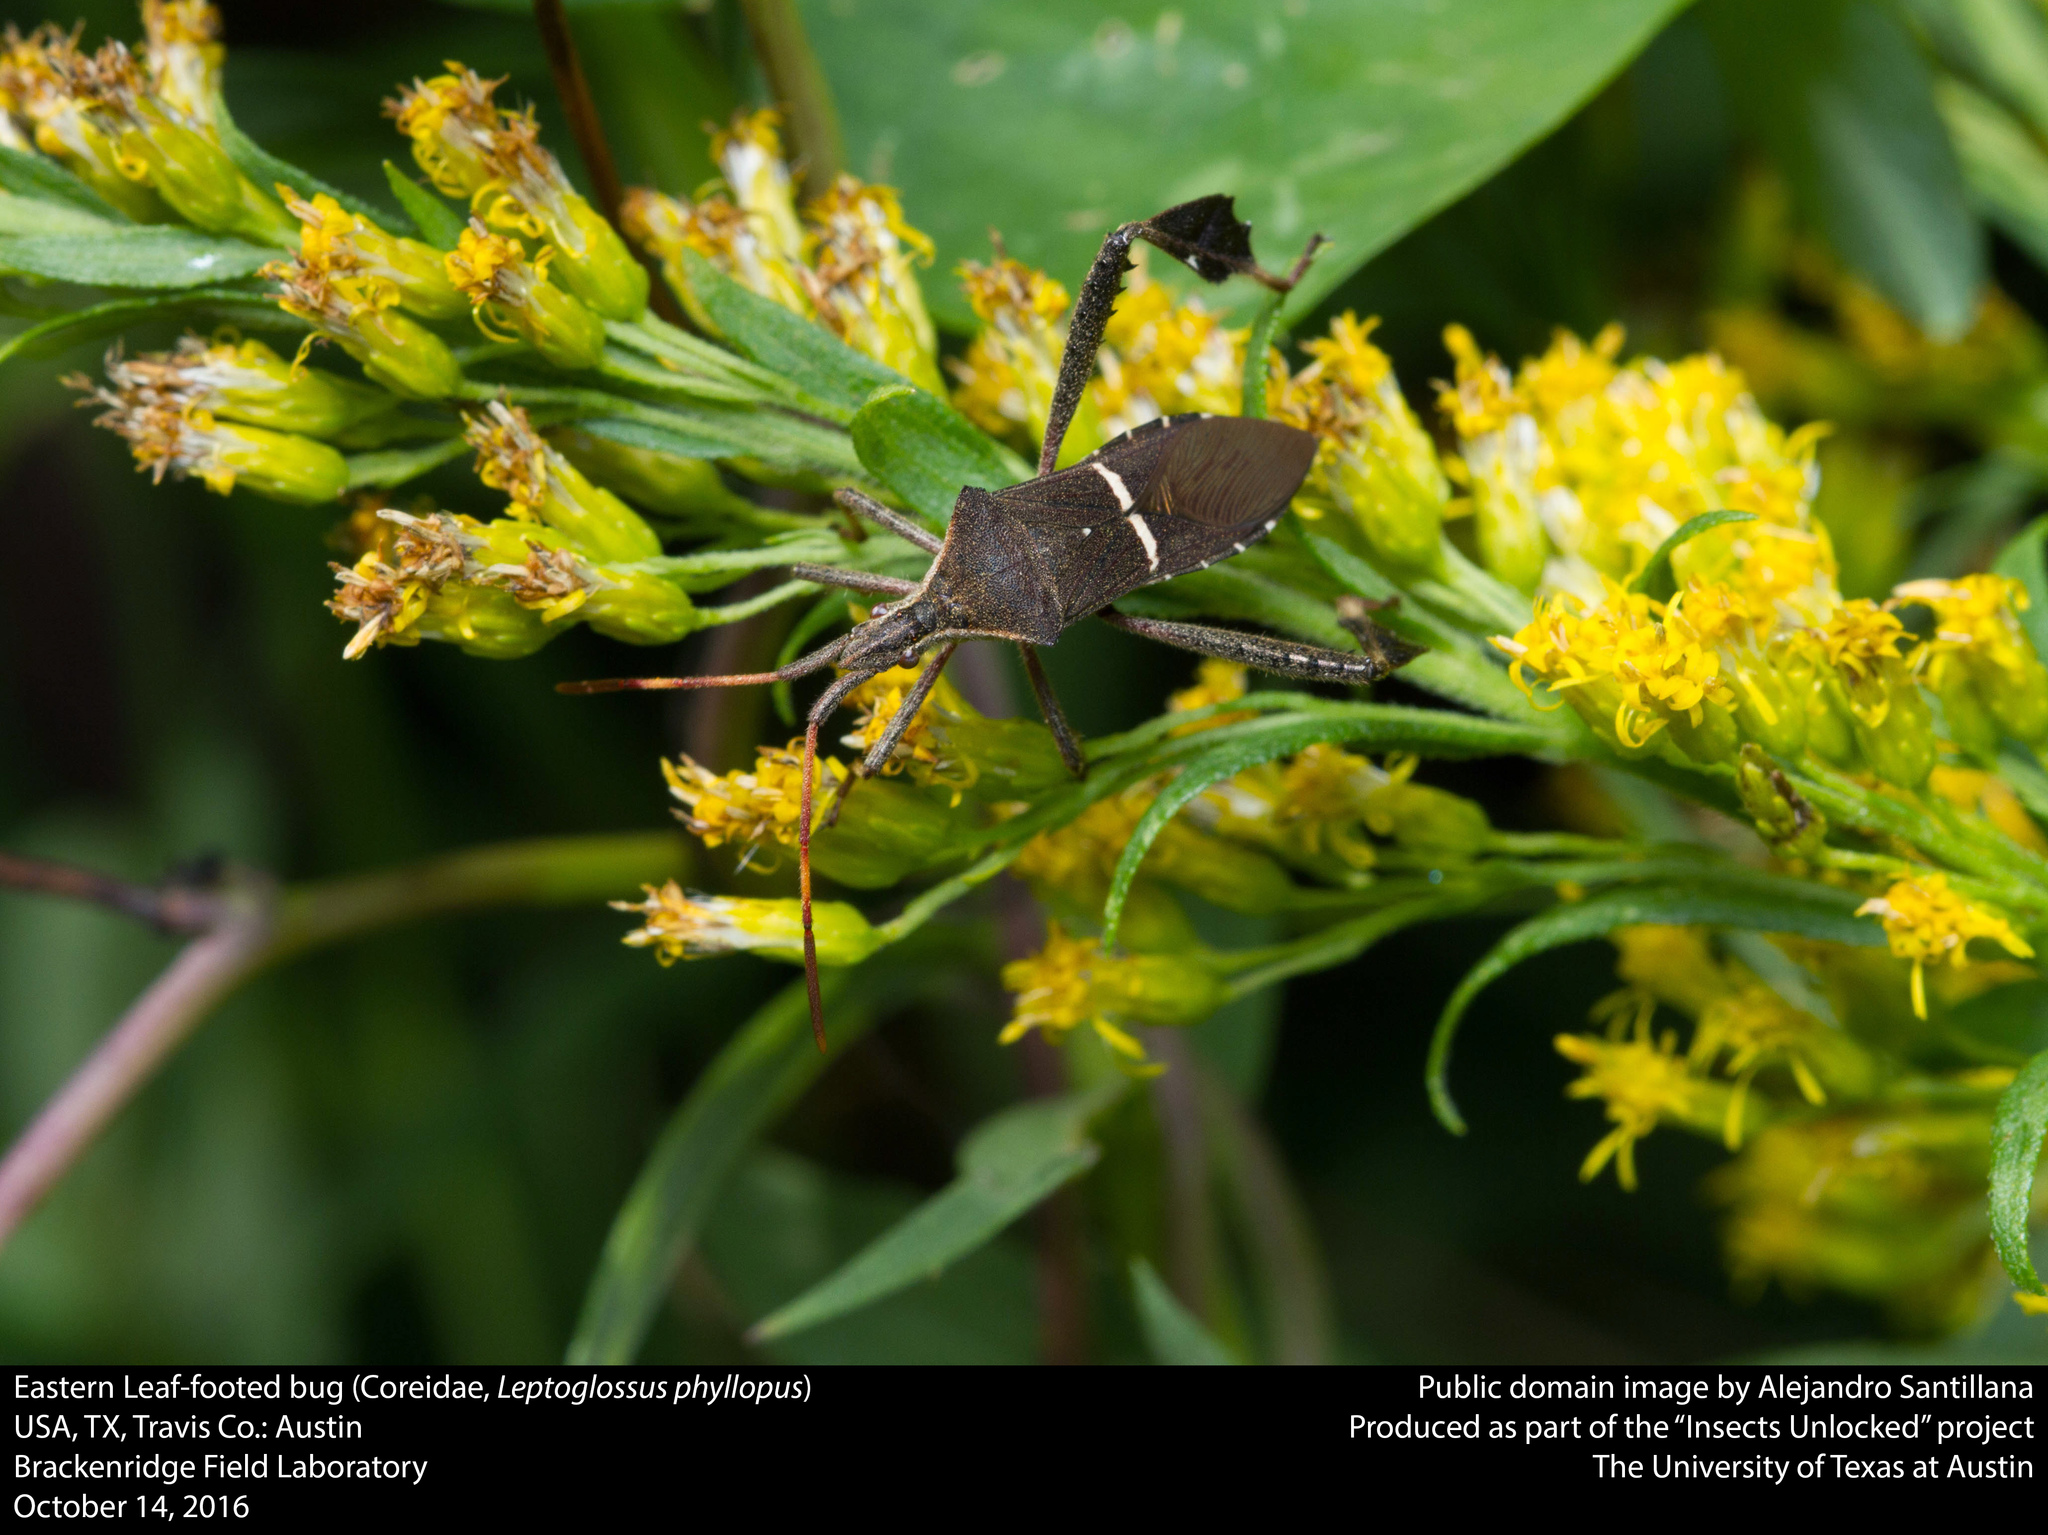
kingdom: Animalia
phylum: Arthropoda
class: Insecta
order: Hemiptera
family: Coreidae
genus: Leptoglossus
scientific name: Leptoglossus phyllopus
